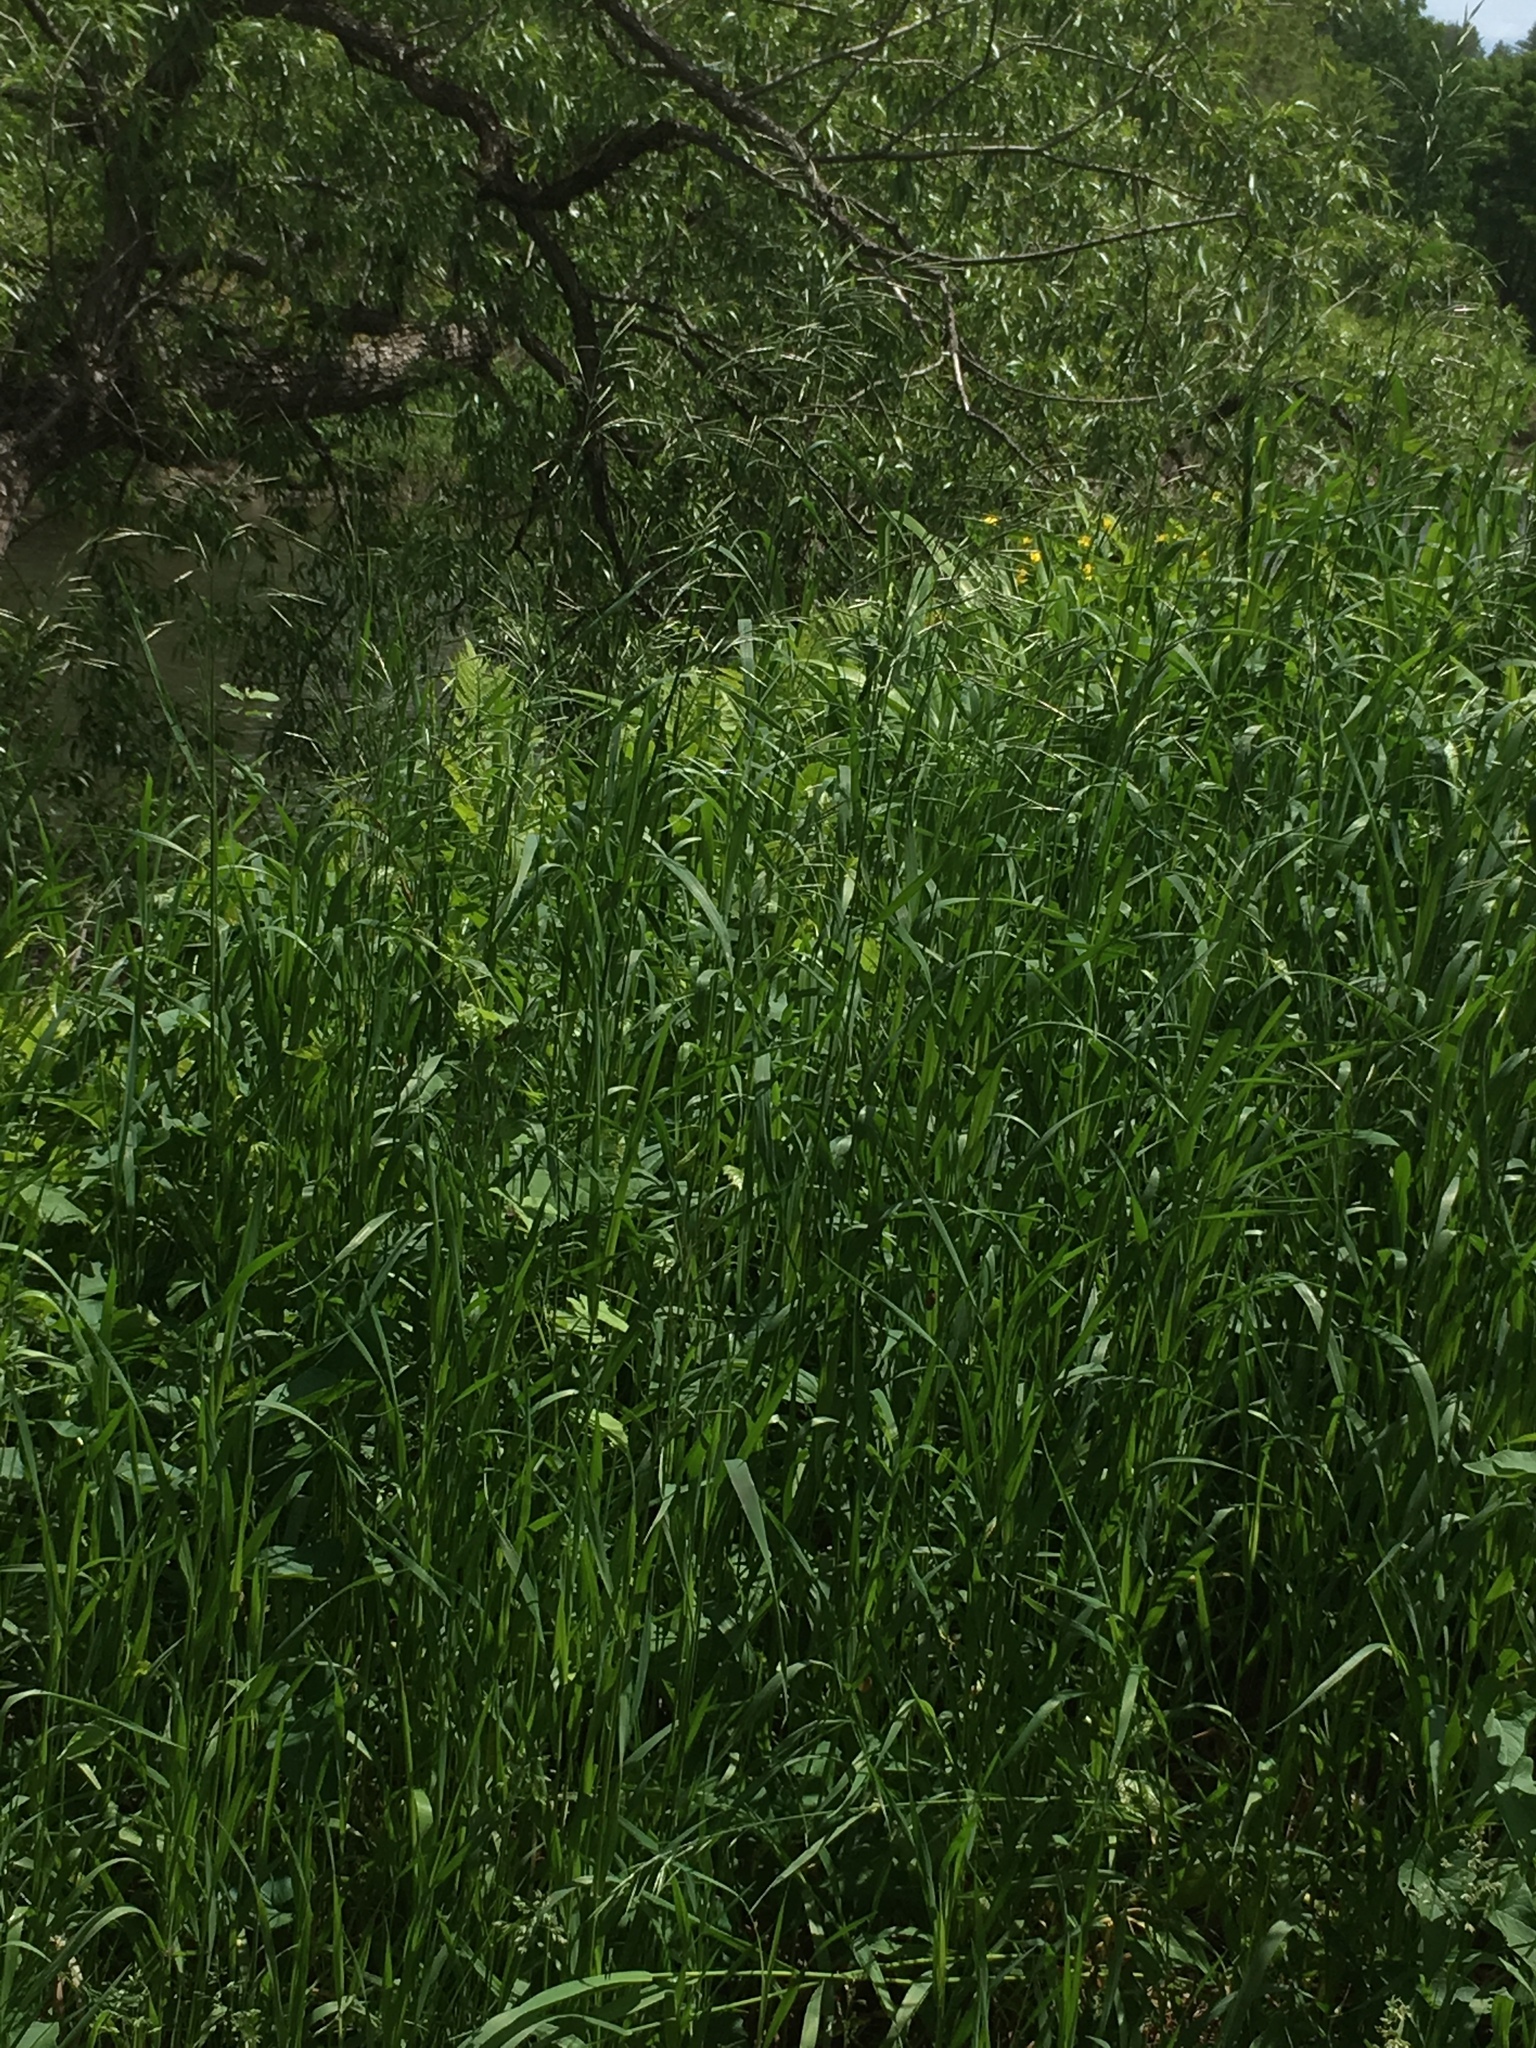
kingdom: Plantae
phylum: Tracheophyta
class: Liliopsida
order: Poales
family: Poaceae
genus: Bromus
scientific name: Bromus inermis
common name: Smooth brome
